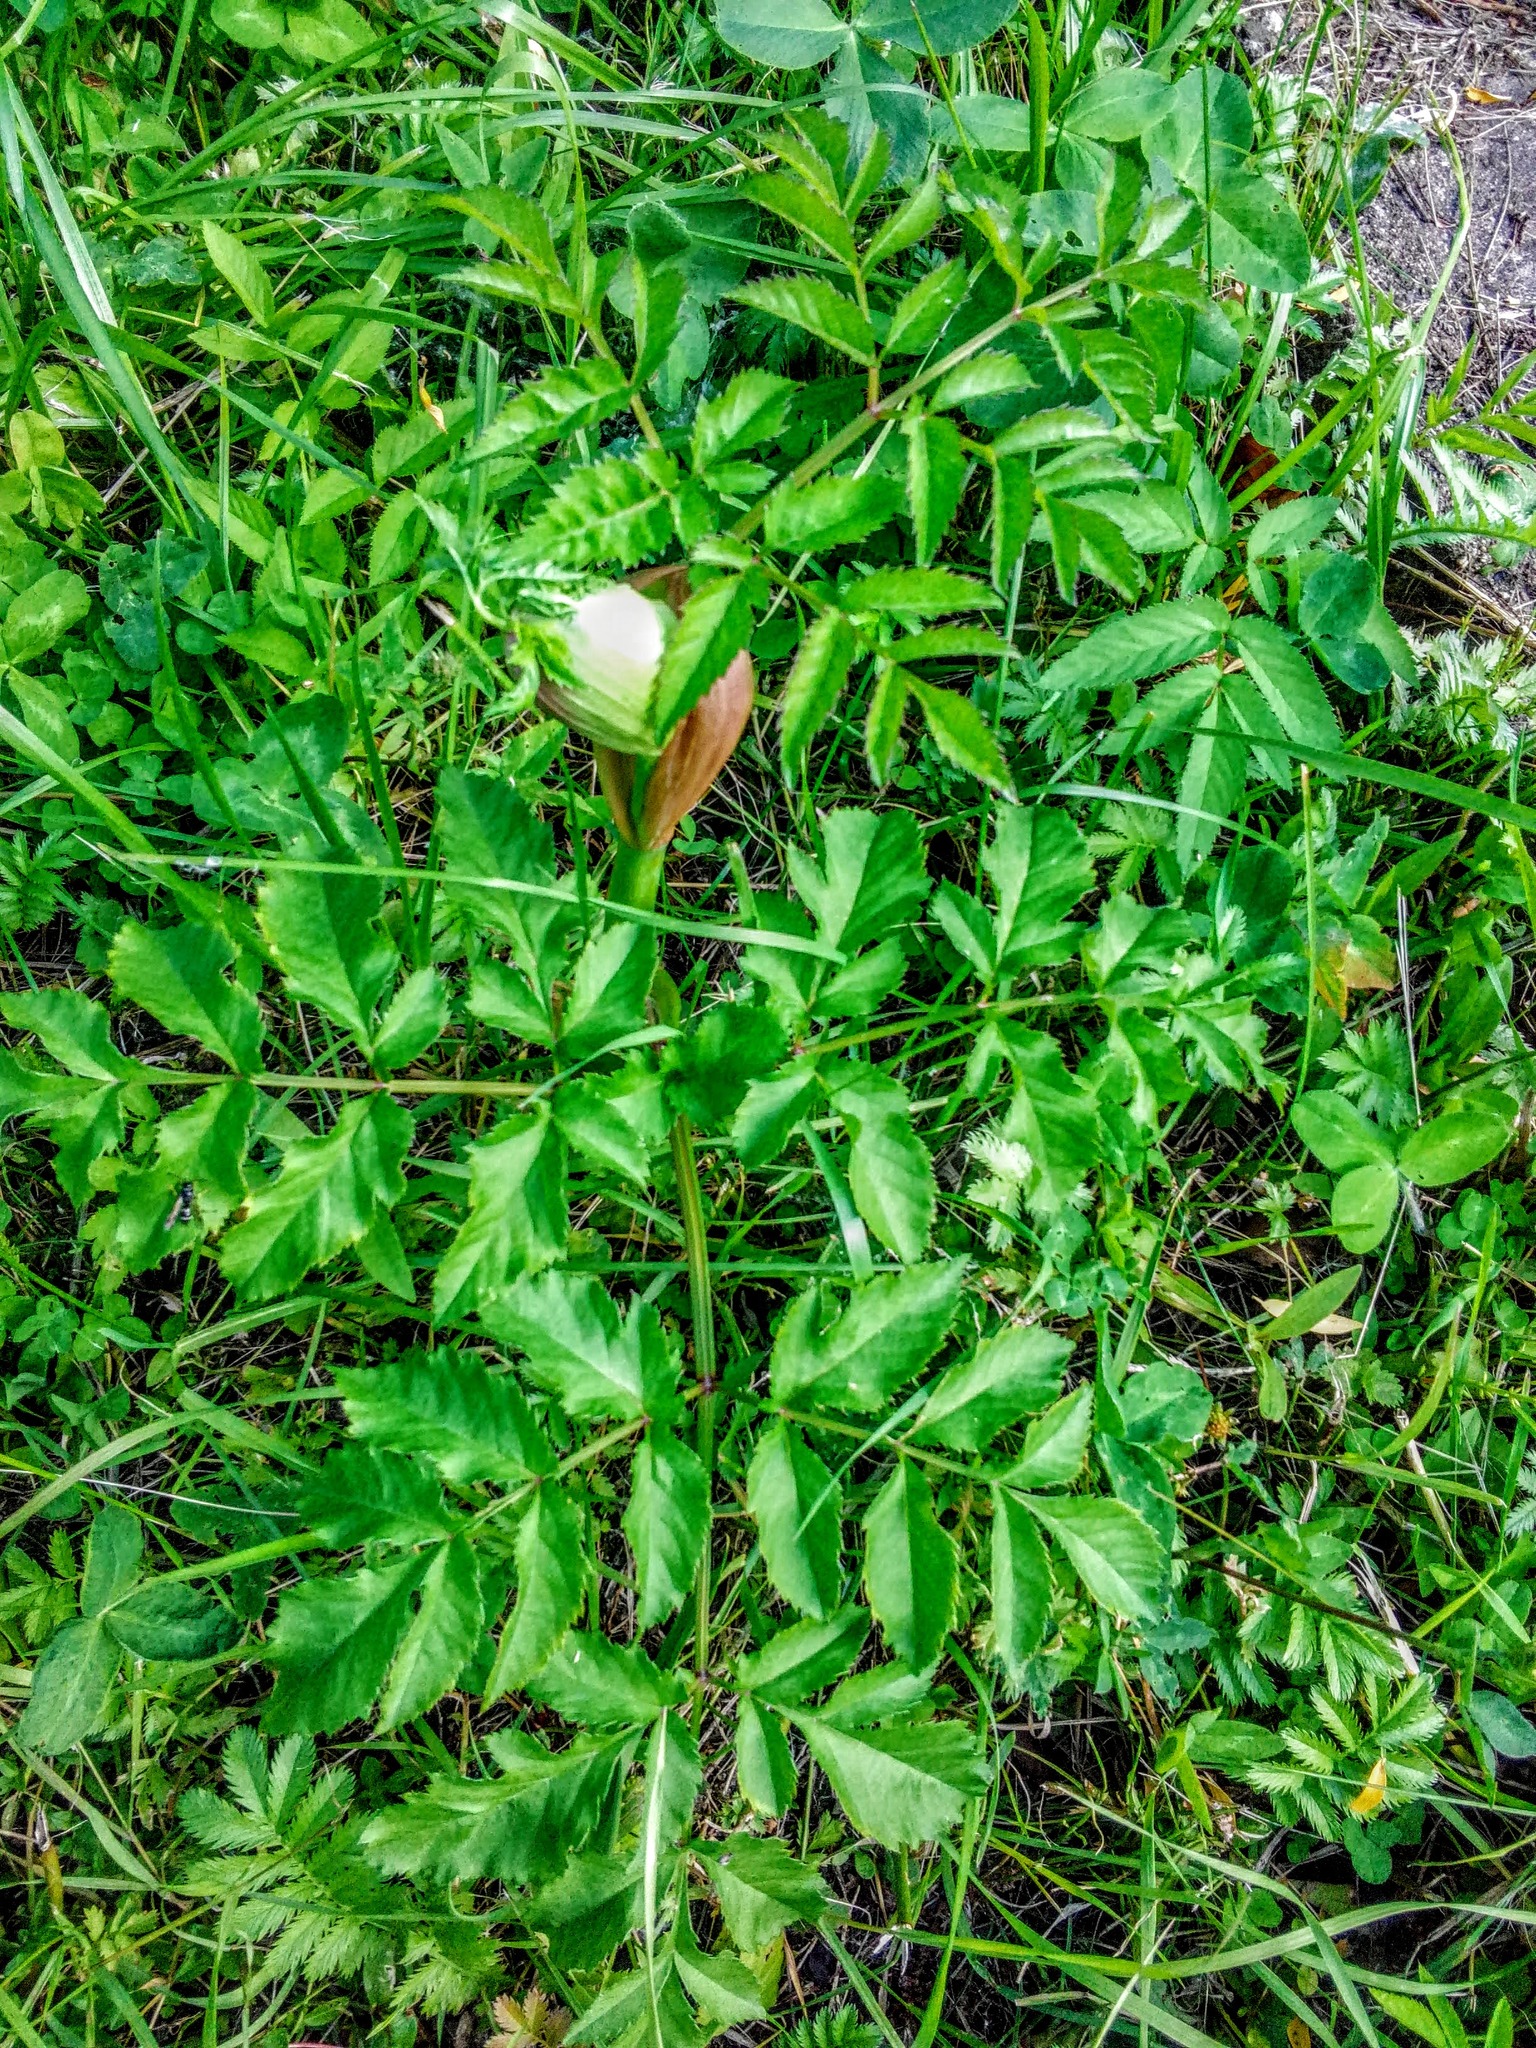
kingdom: Plantae
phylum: Tracheophyta
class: Magnoliopsida
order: Apiales
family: Apiaceae
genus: Angelica
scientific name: Angelica sylvestris
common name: Wild angelica
